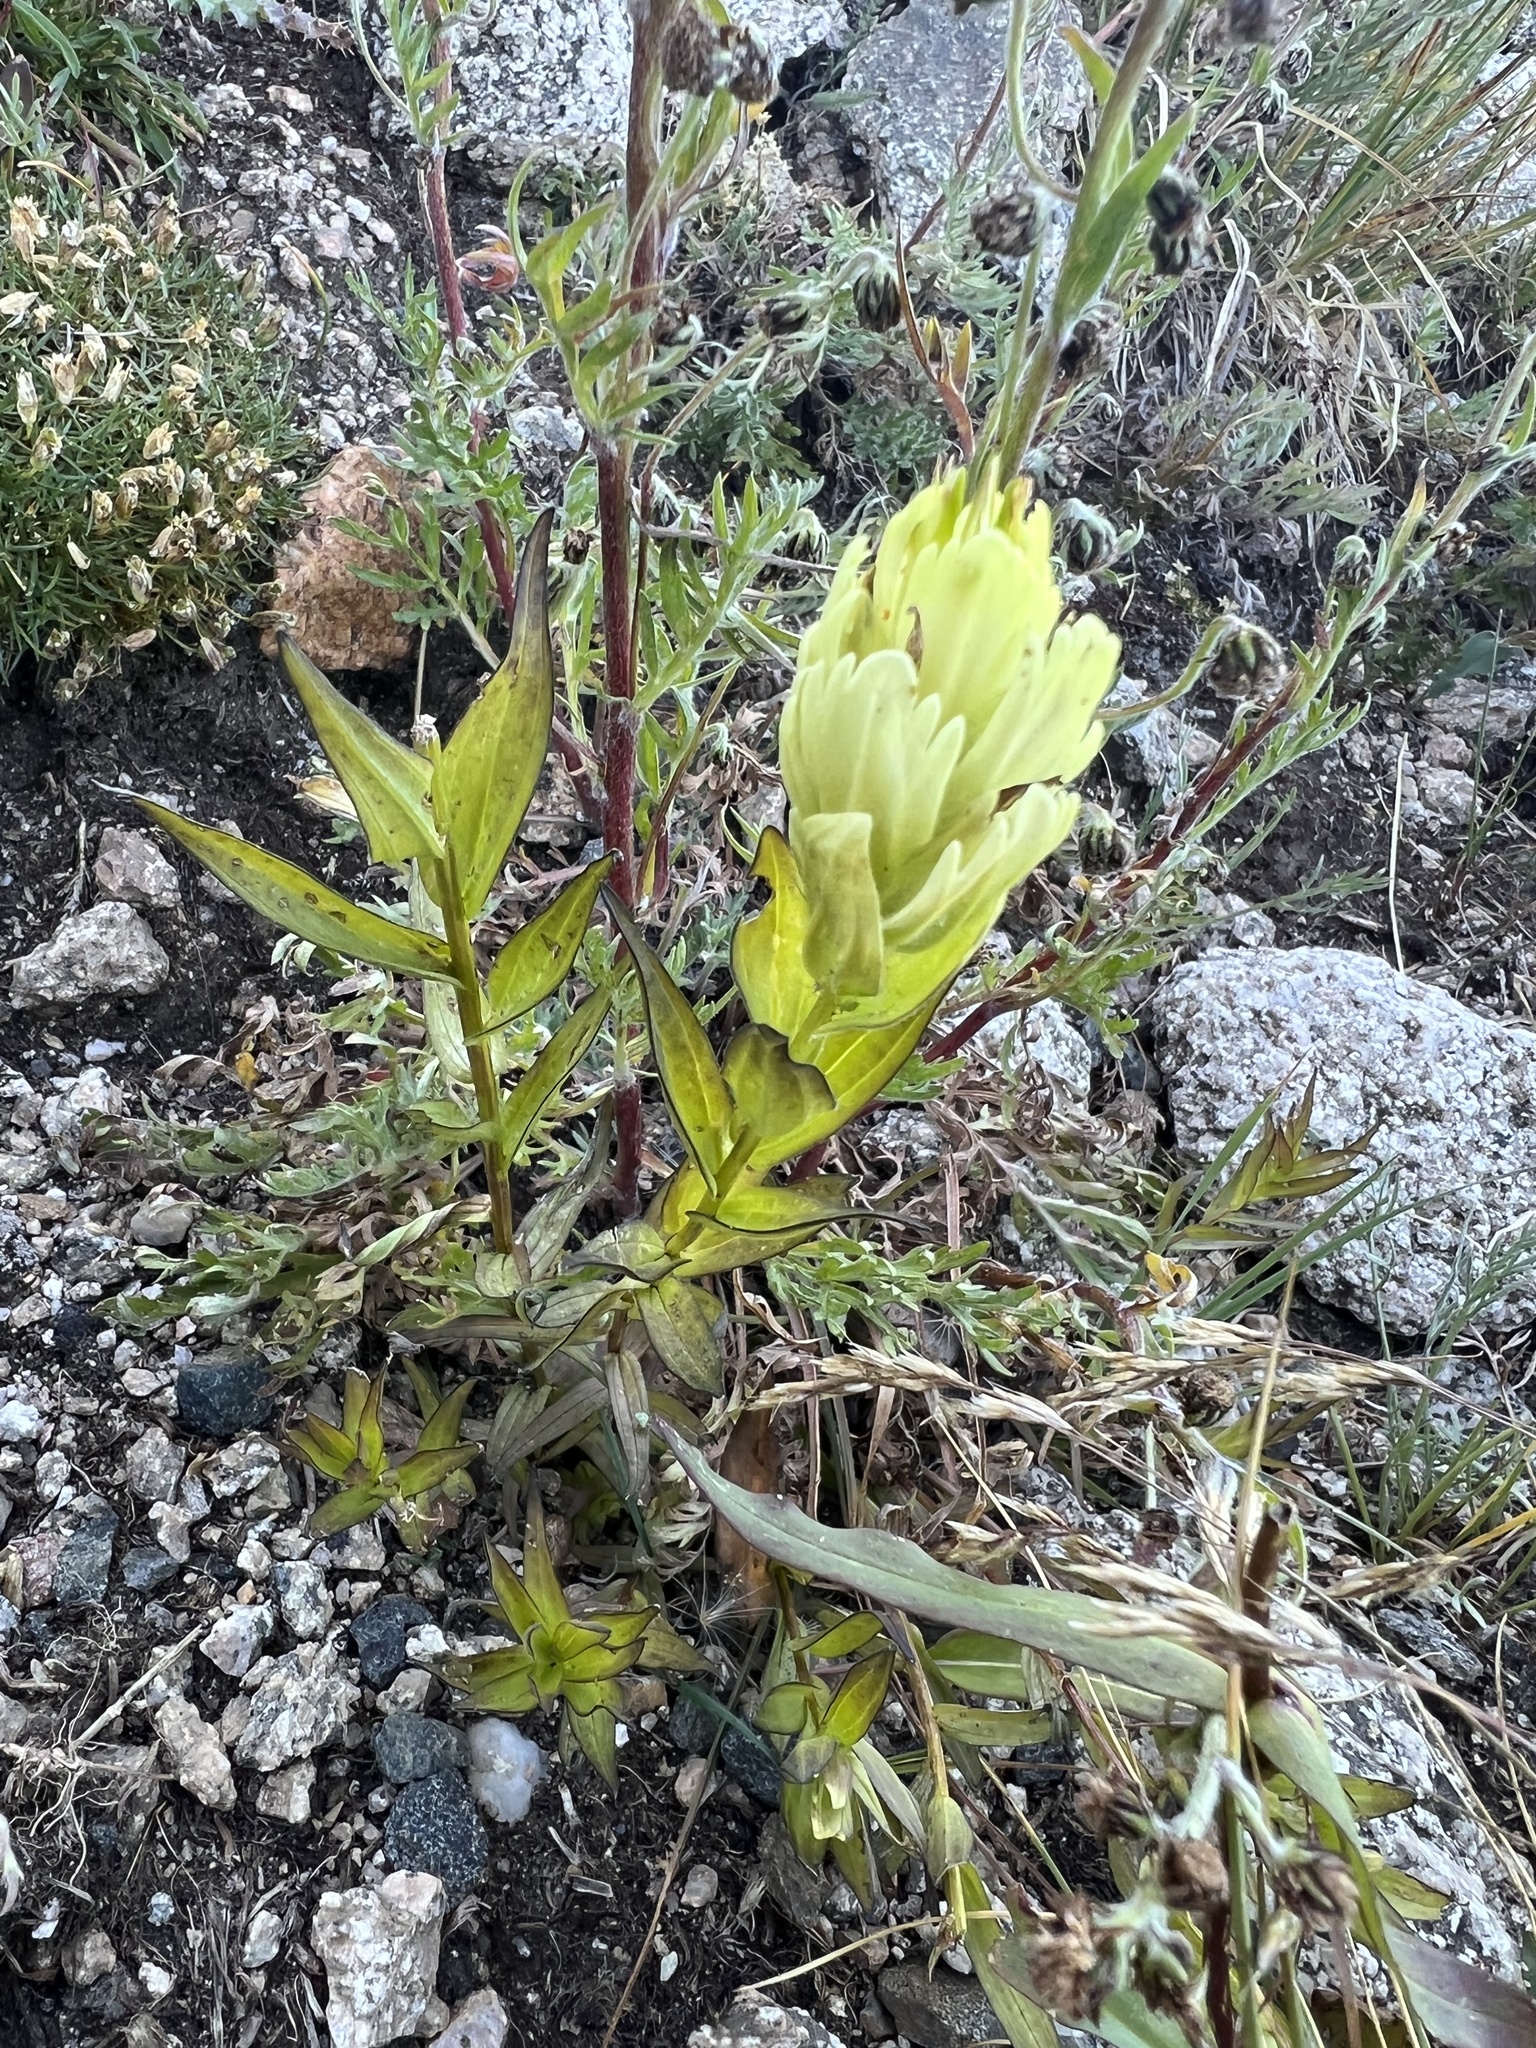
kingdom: Plantae
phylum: Tracheophyta
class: Magnoliopsida
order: Lamiales
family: Orobanchaceae
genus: Castilleja
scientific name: Castilleja occidentalis
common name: Western paintbrush
